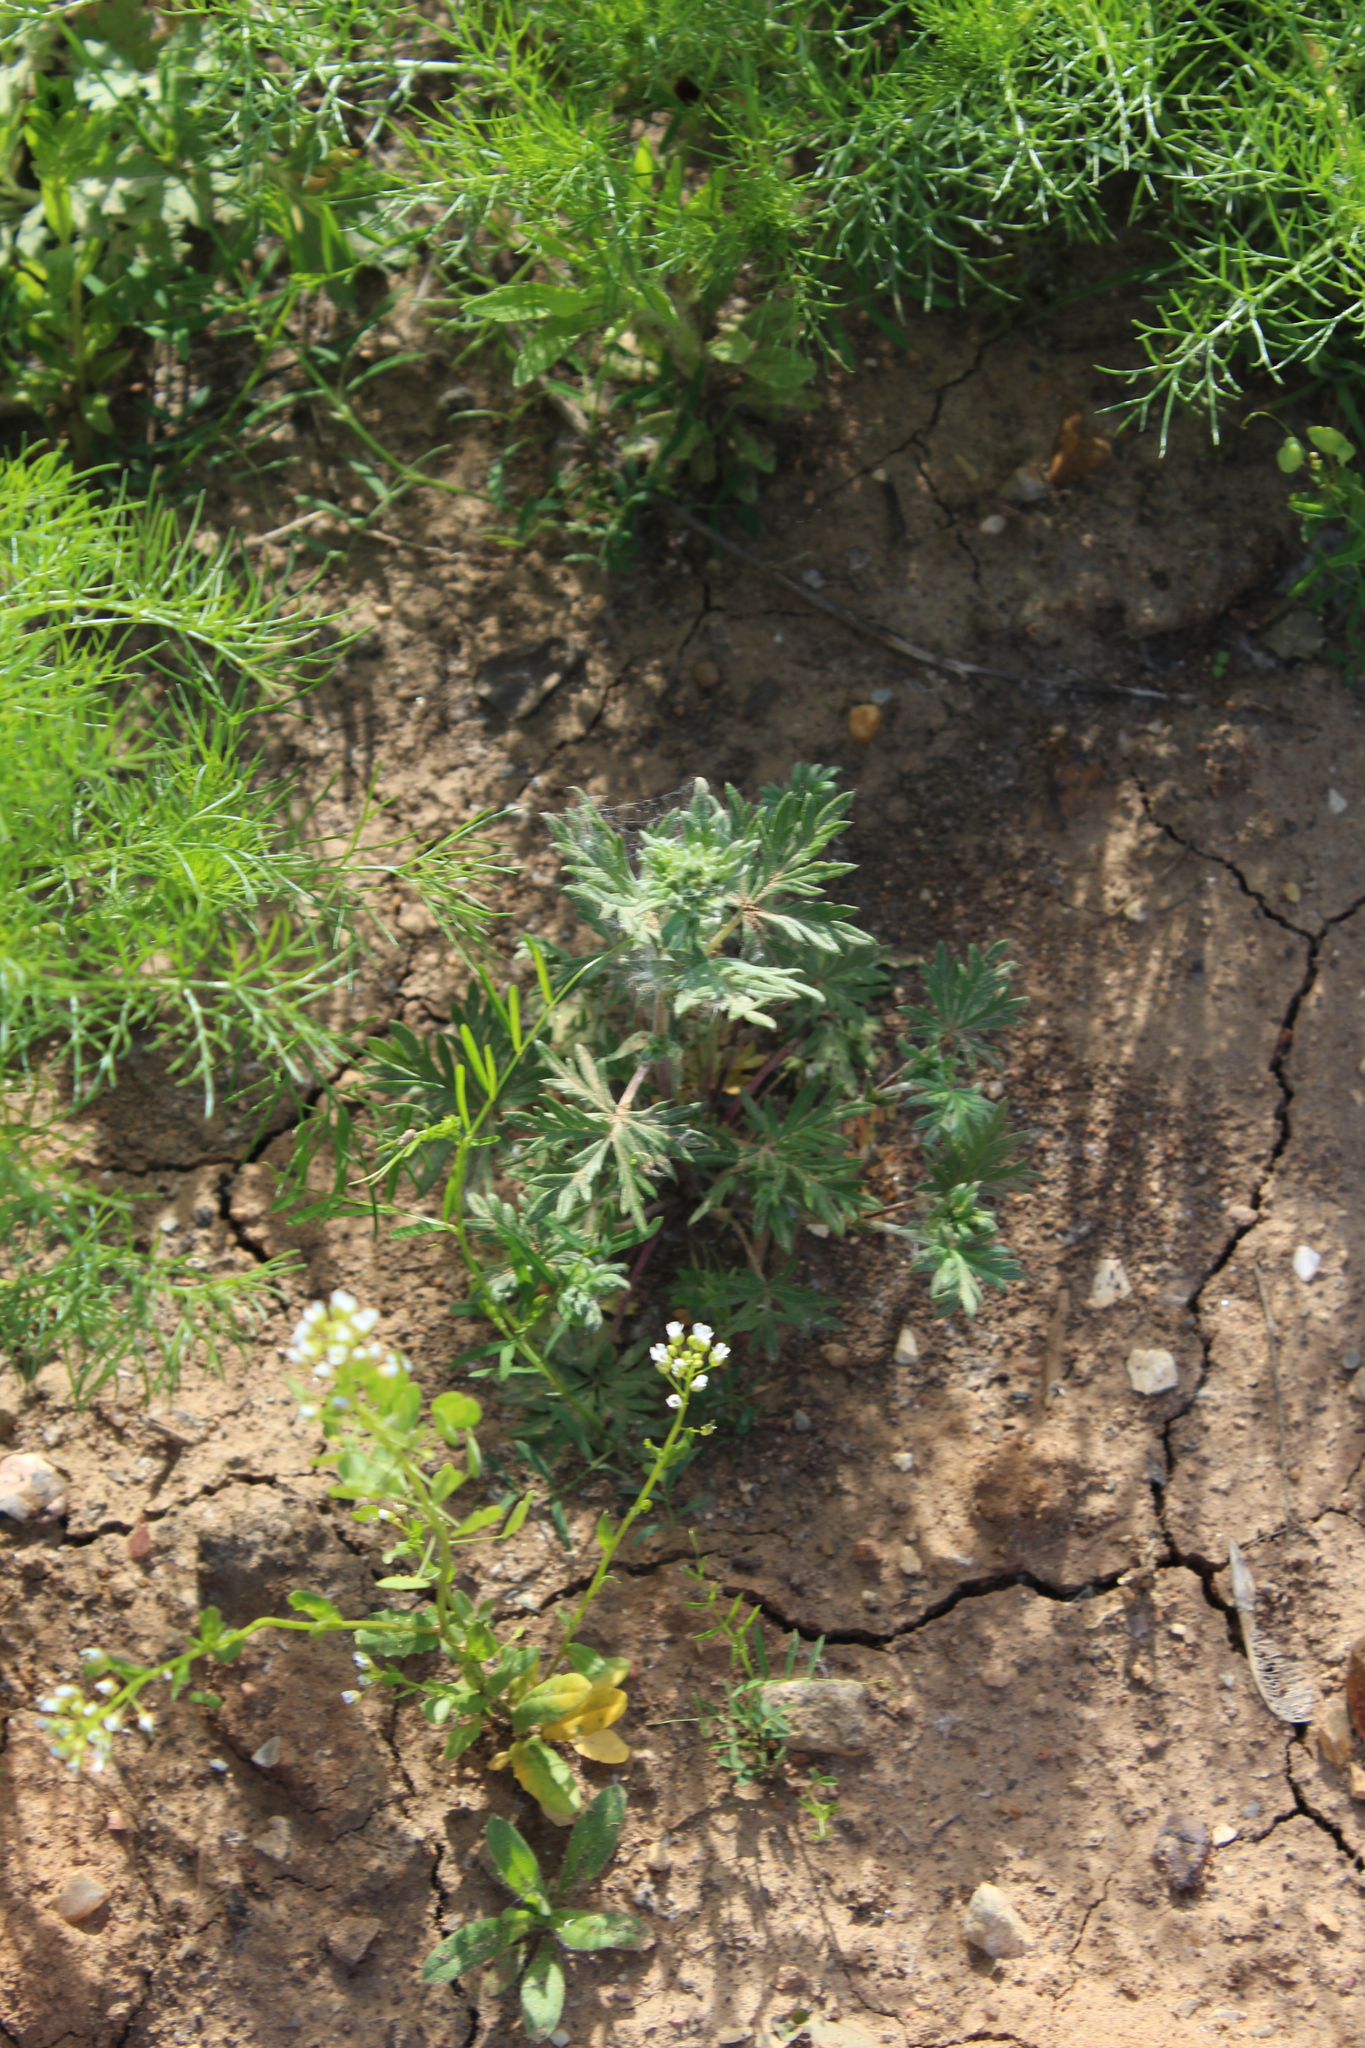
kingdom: Plantae
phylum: Tracheophyta
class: Magnoliopsida
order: Rosales
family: Rosaceae
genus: Potentilla
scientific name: Potentilla argentea
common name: Hoary cinquefoil
